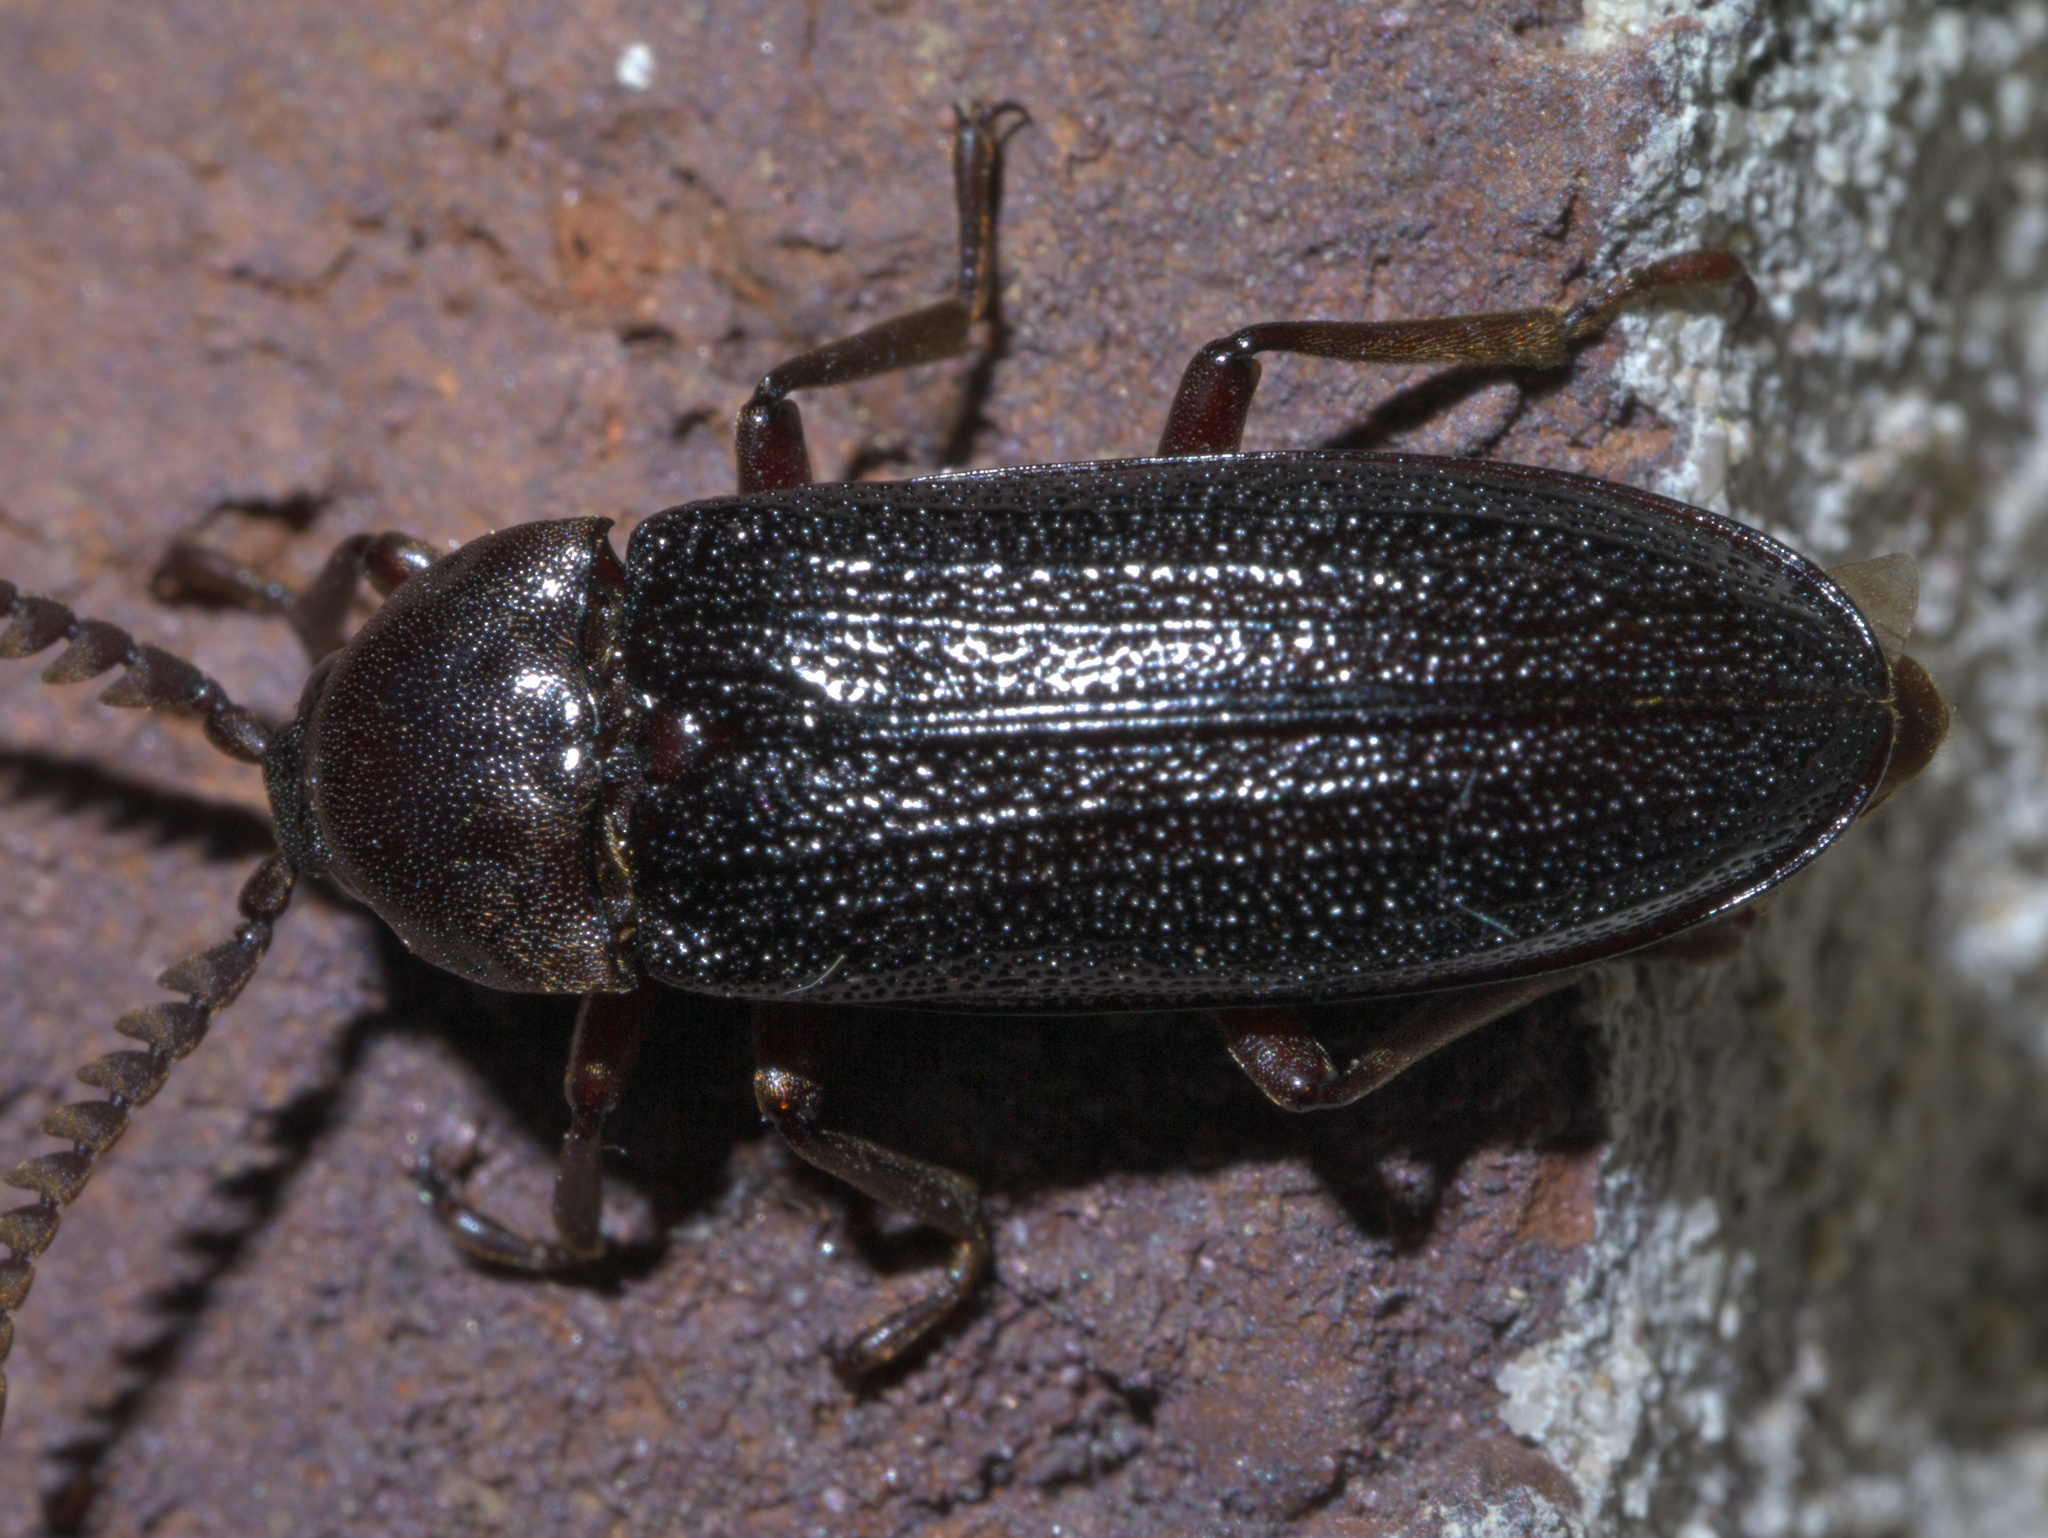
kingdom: Animalia
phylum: Arthropoda
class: Insecta
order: Coleoptera
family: Callirhipidae
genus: Zenoa
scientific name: Zenoa picea
